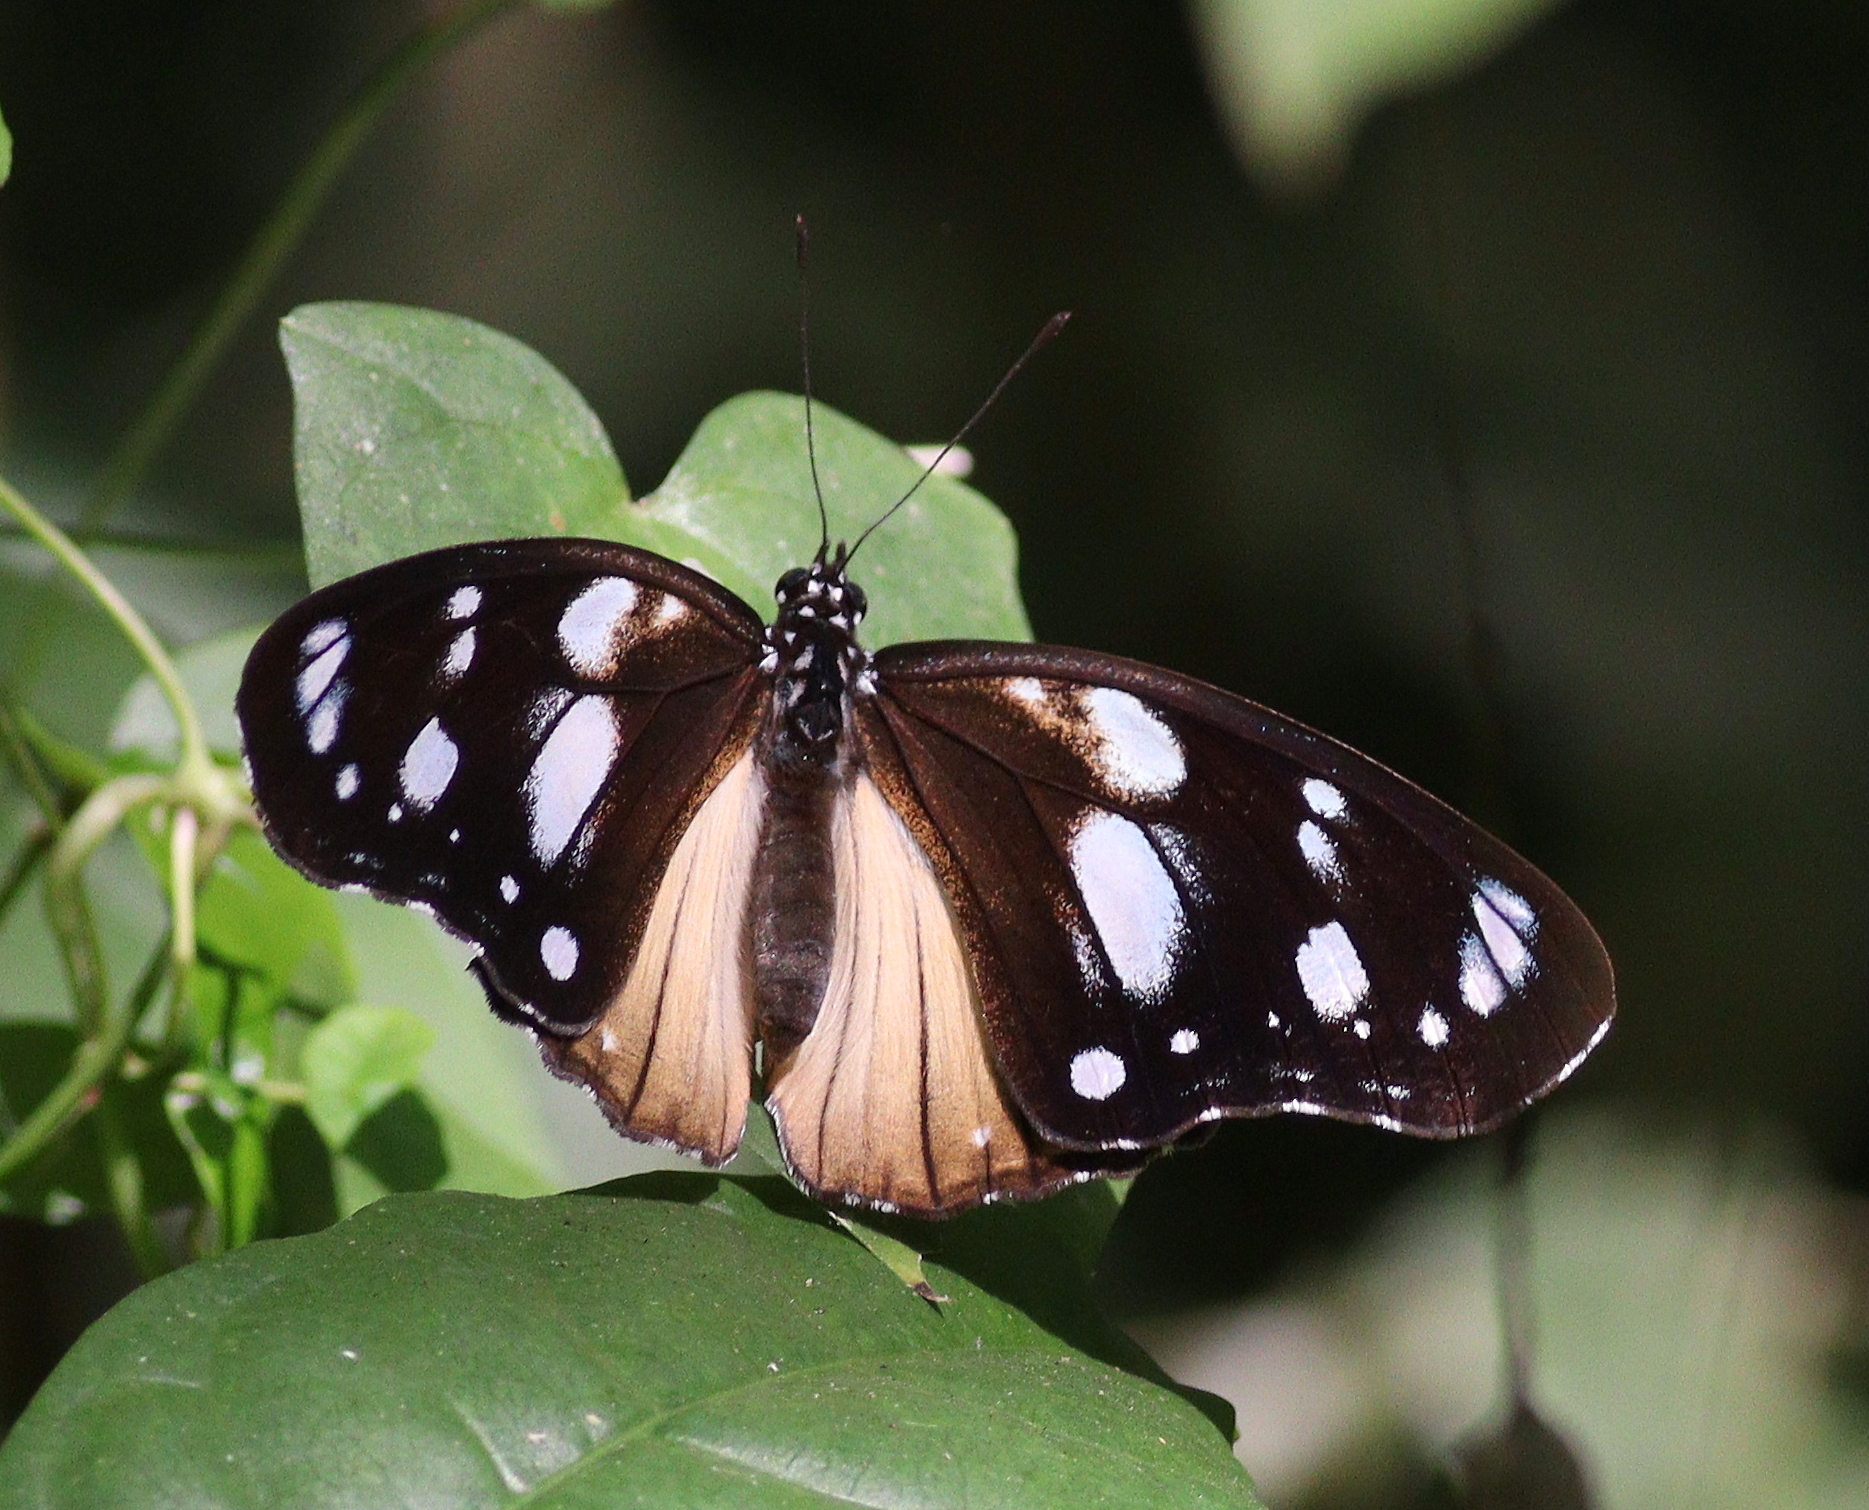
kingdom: Animalia
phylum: Arthropoda
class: Insecta
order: Lepidoptera
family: Nymphalidae
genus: Hypolimnas
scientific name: Hypolimnas dubius
